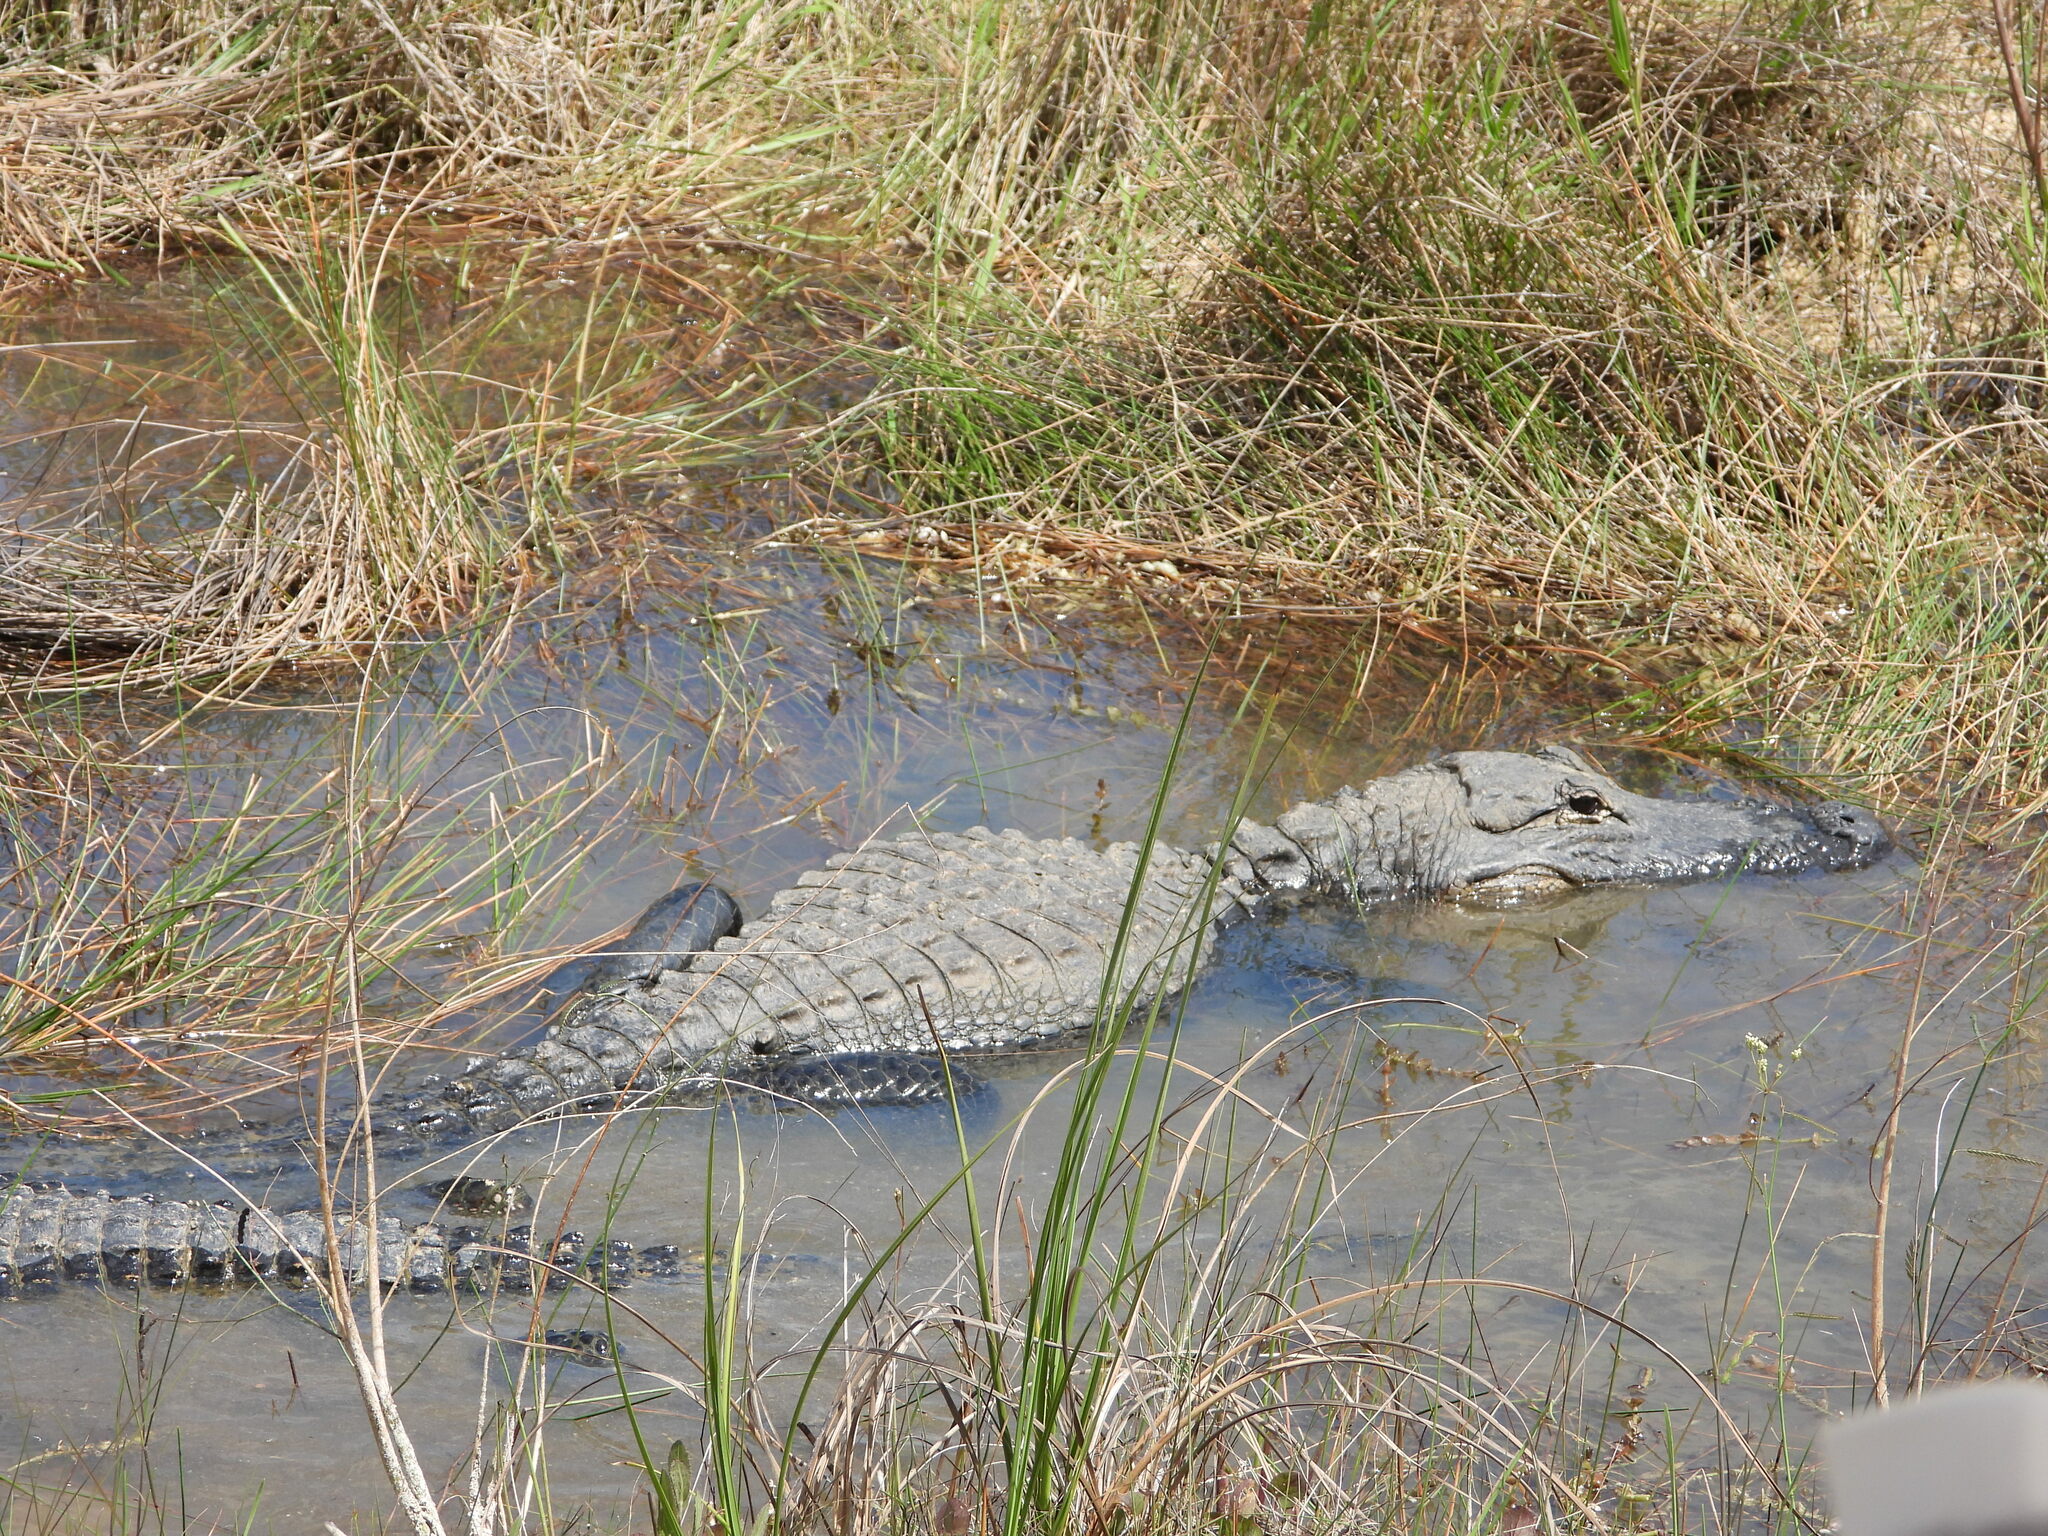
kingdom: Animalia
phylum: Chordata
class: Crocodylia
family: Alligatoridae
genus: Alligator
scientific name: Alligator mississippiensis
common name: American alligator
